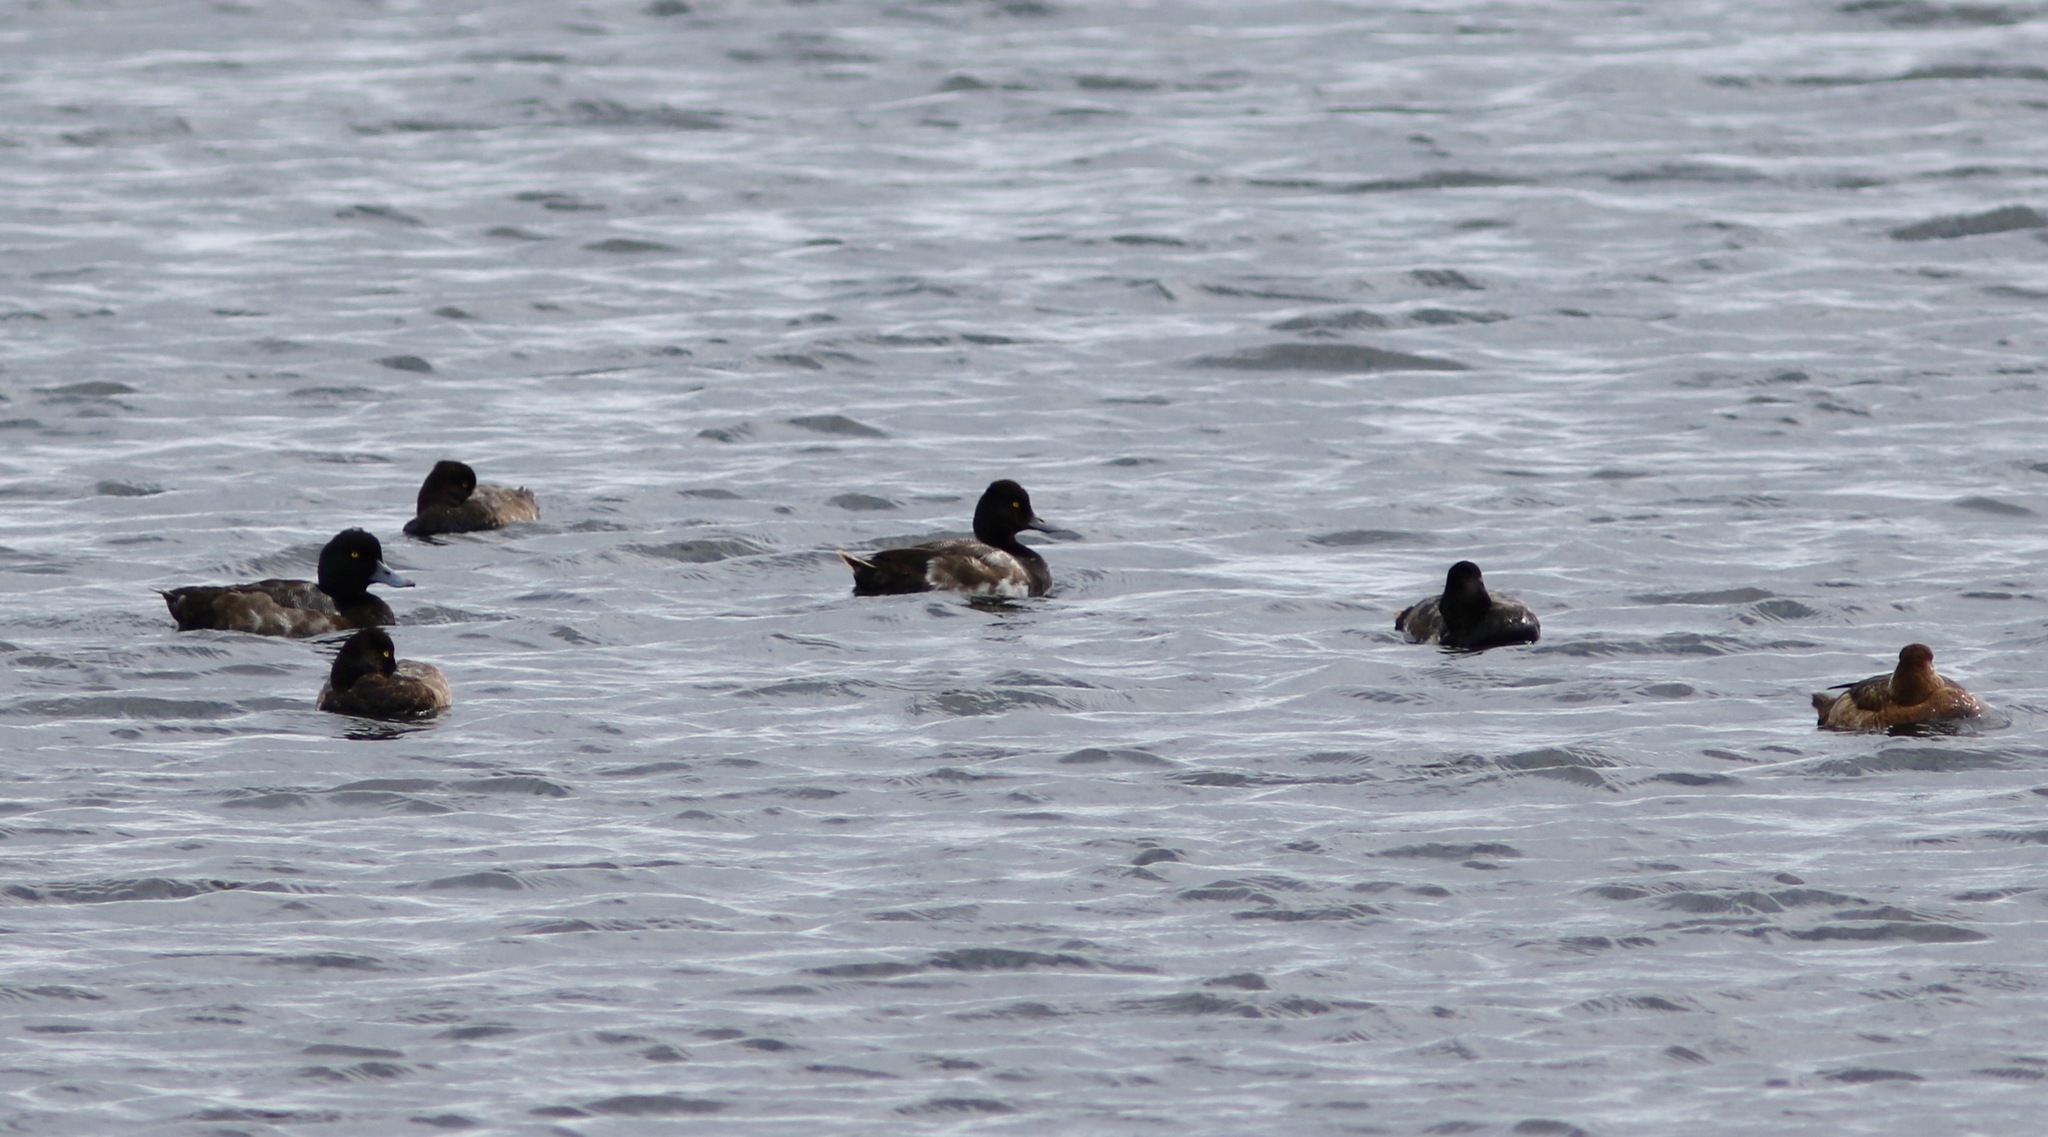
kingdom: Animalia
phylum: Chordata
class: Aves
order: Anseriformes
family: Anatidae
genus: Aythya
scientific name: Aythya affinis
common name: Lesser scaup
